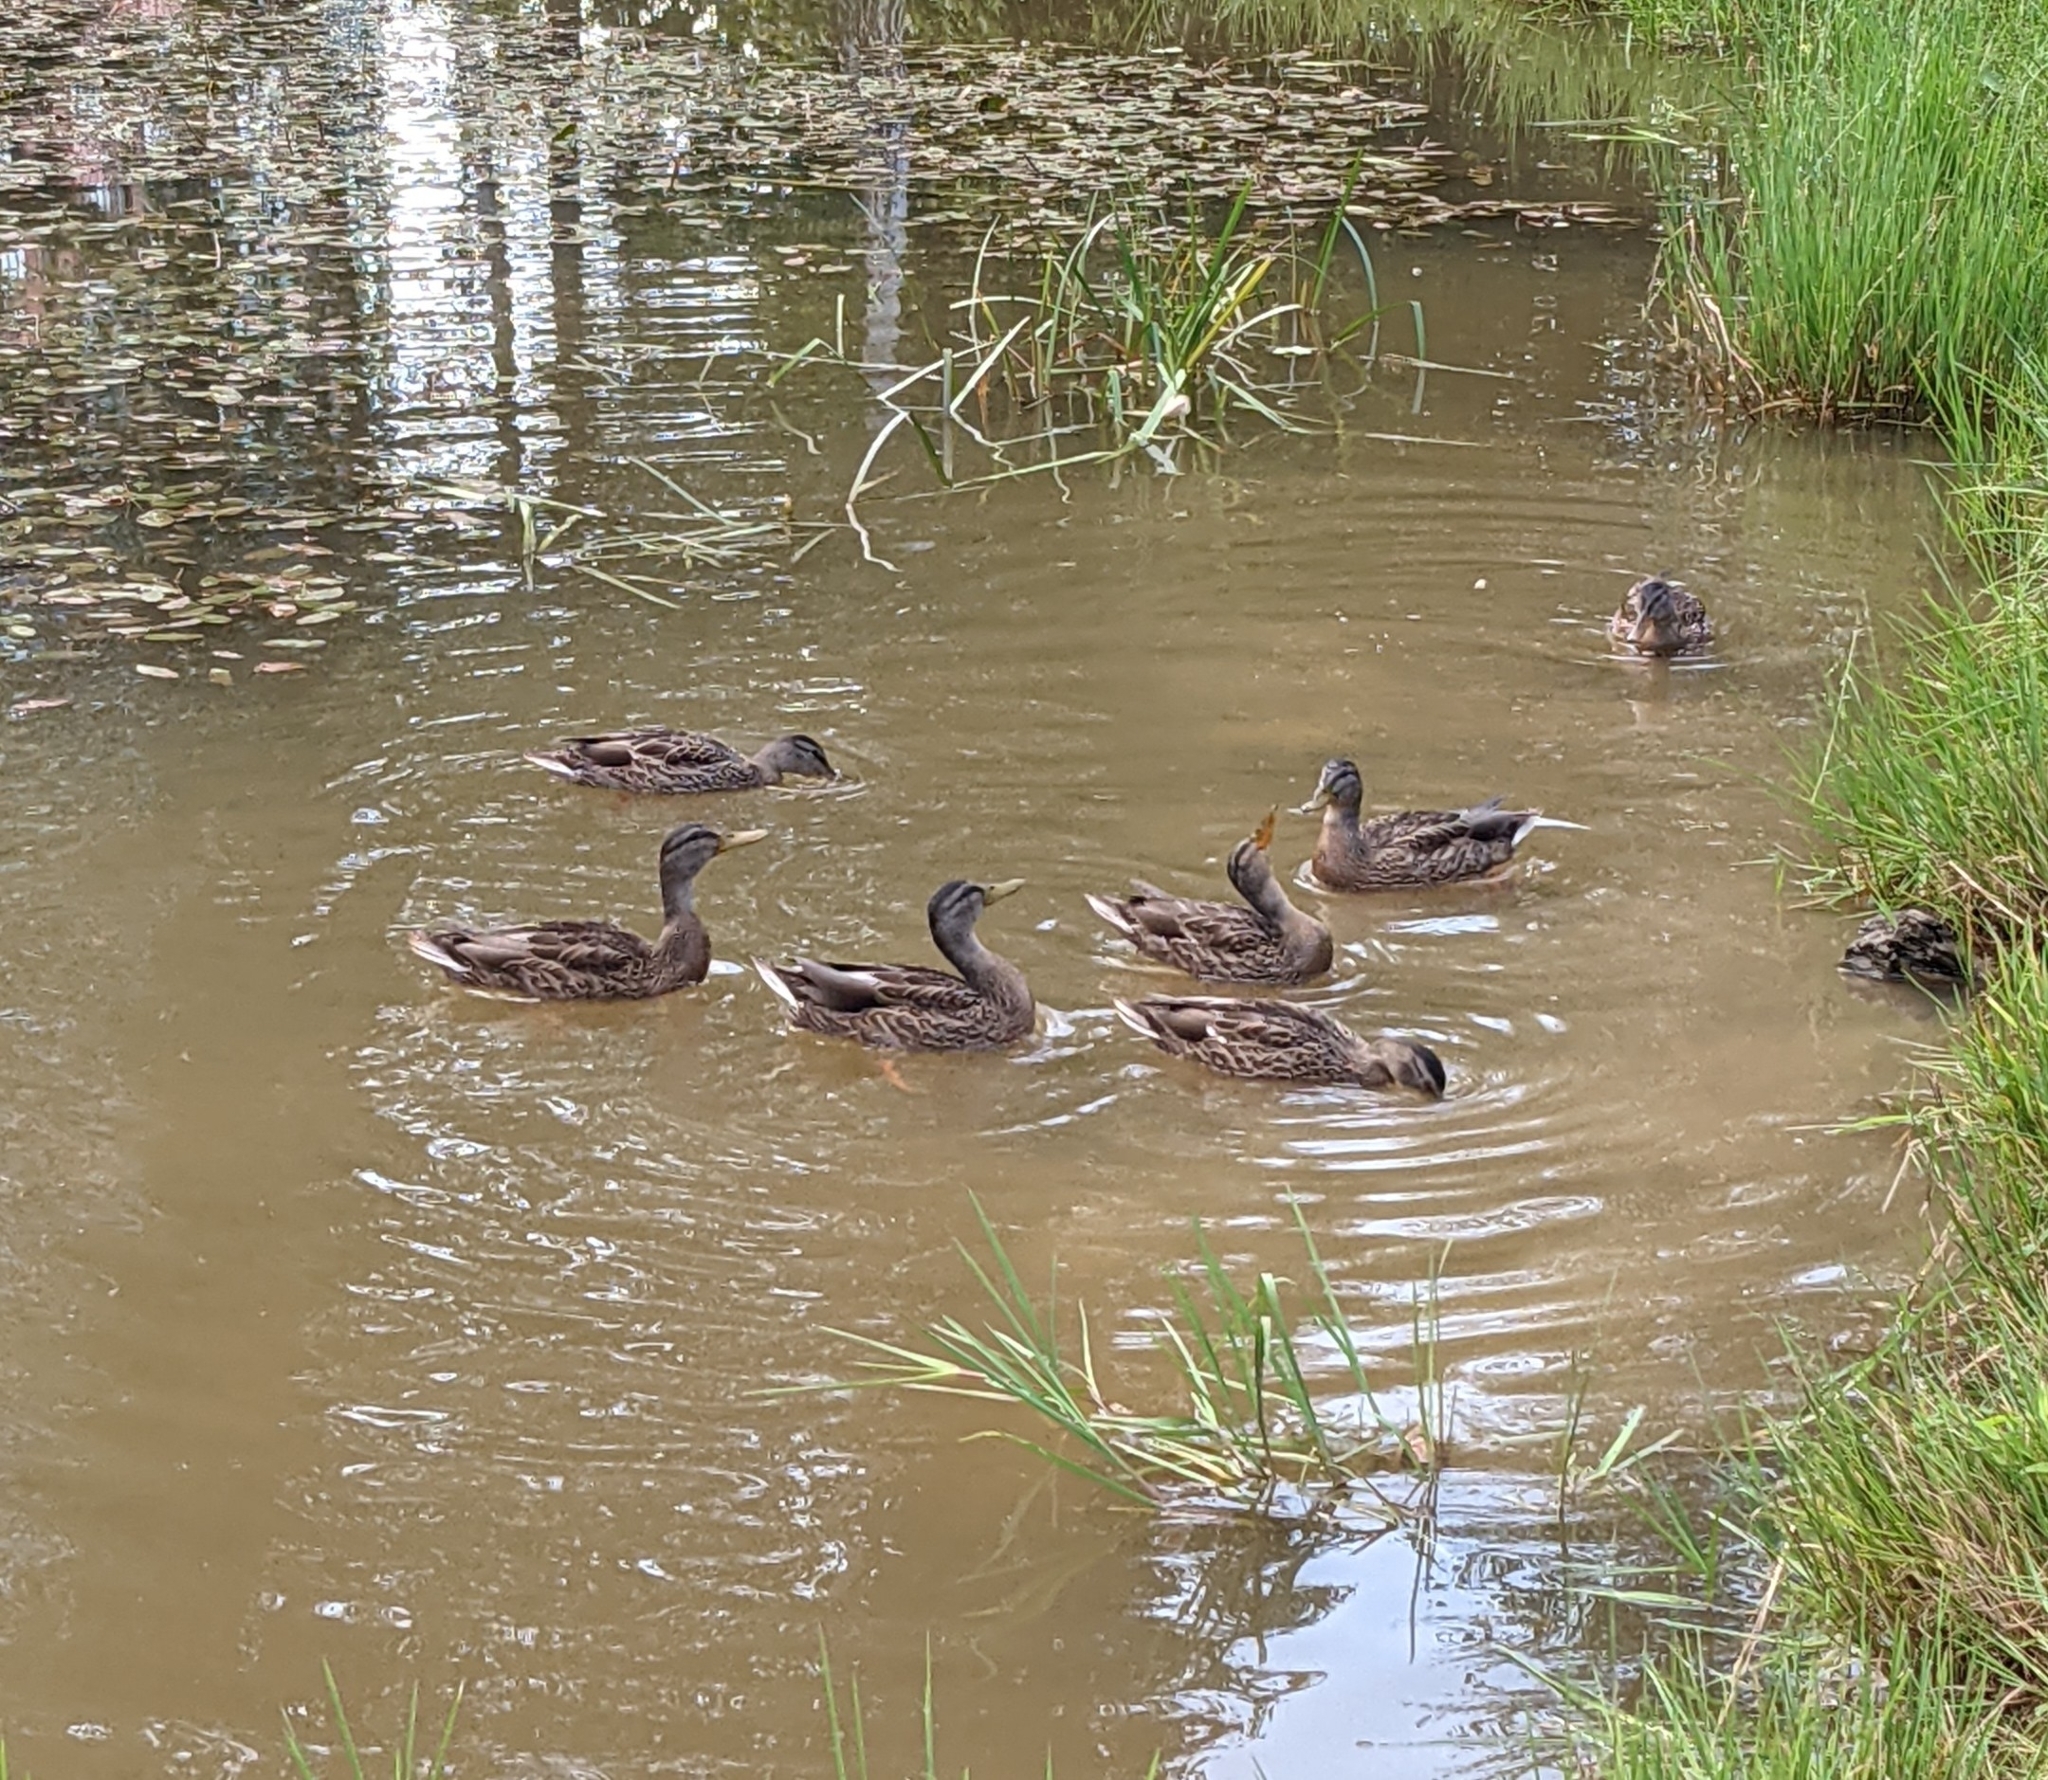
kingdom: Animalia
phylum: Chordata
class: Aves
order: Anseriformes
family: Anatidae
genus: Anas
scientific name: Anas platyrhynchos
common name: Mallard
